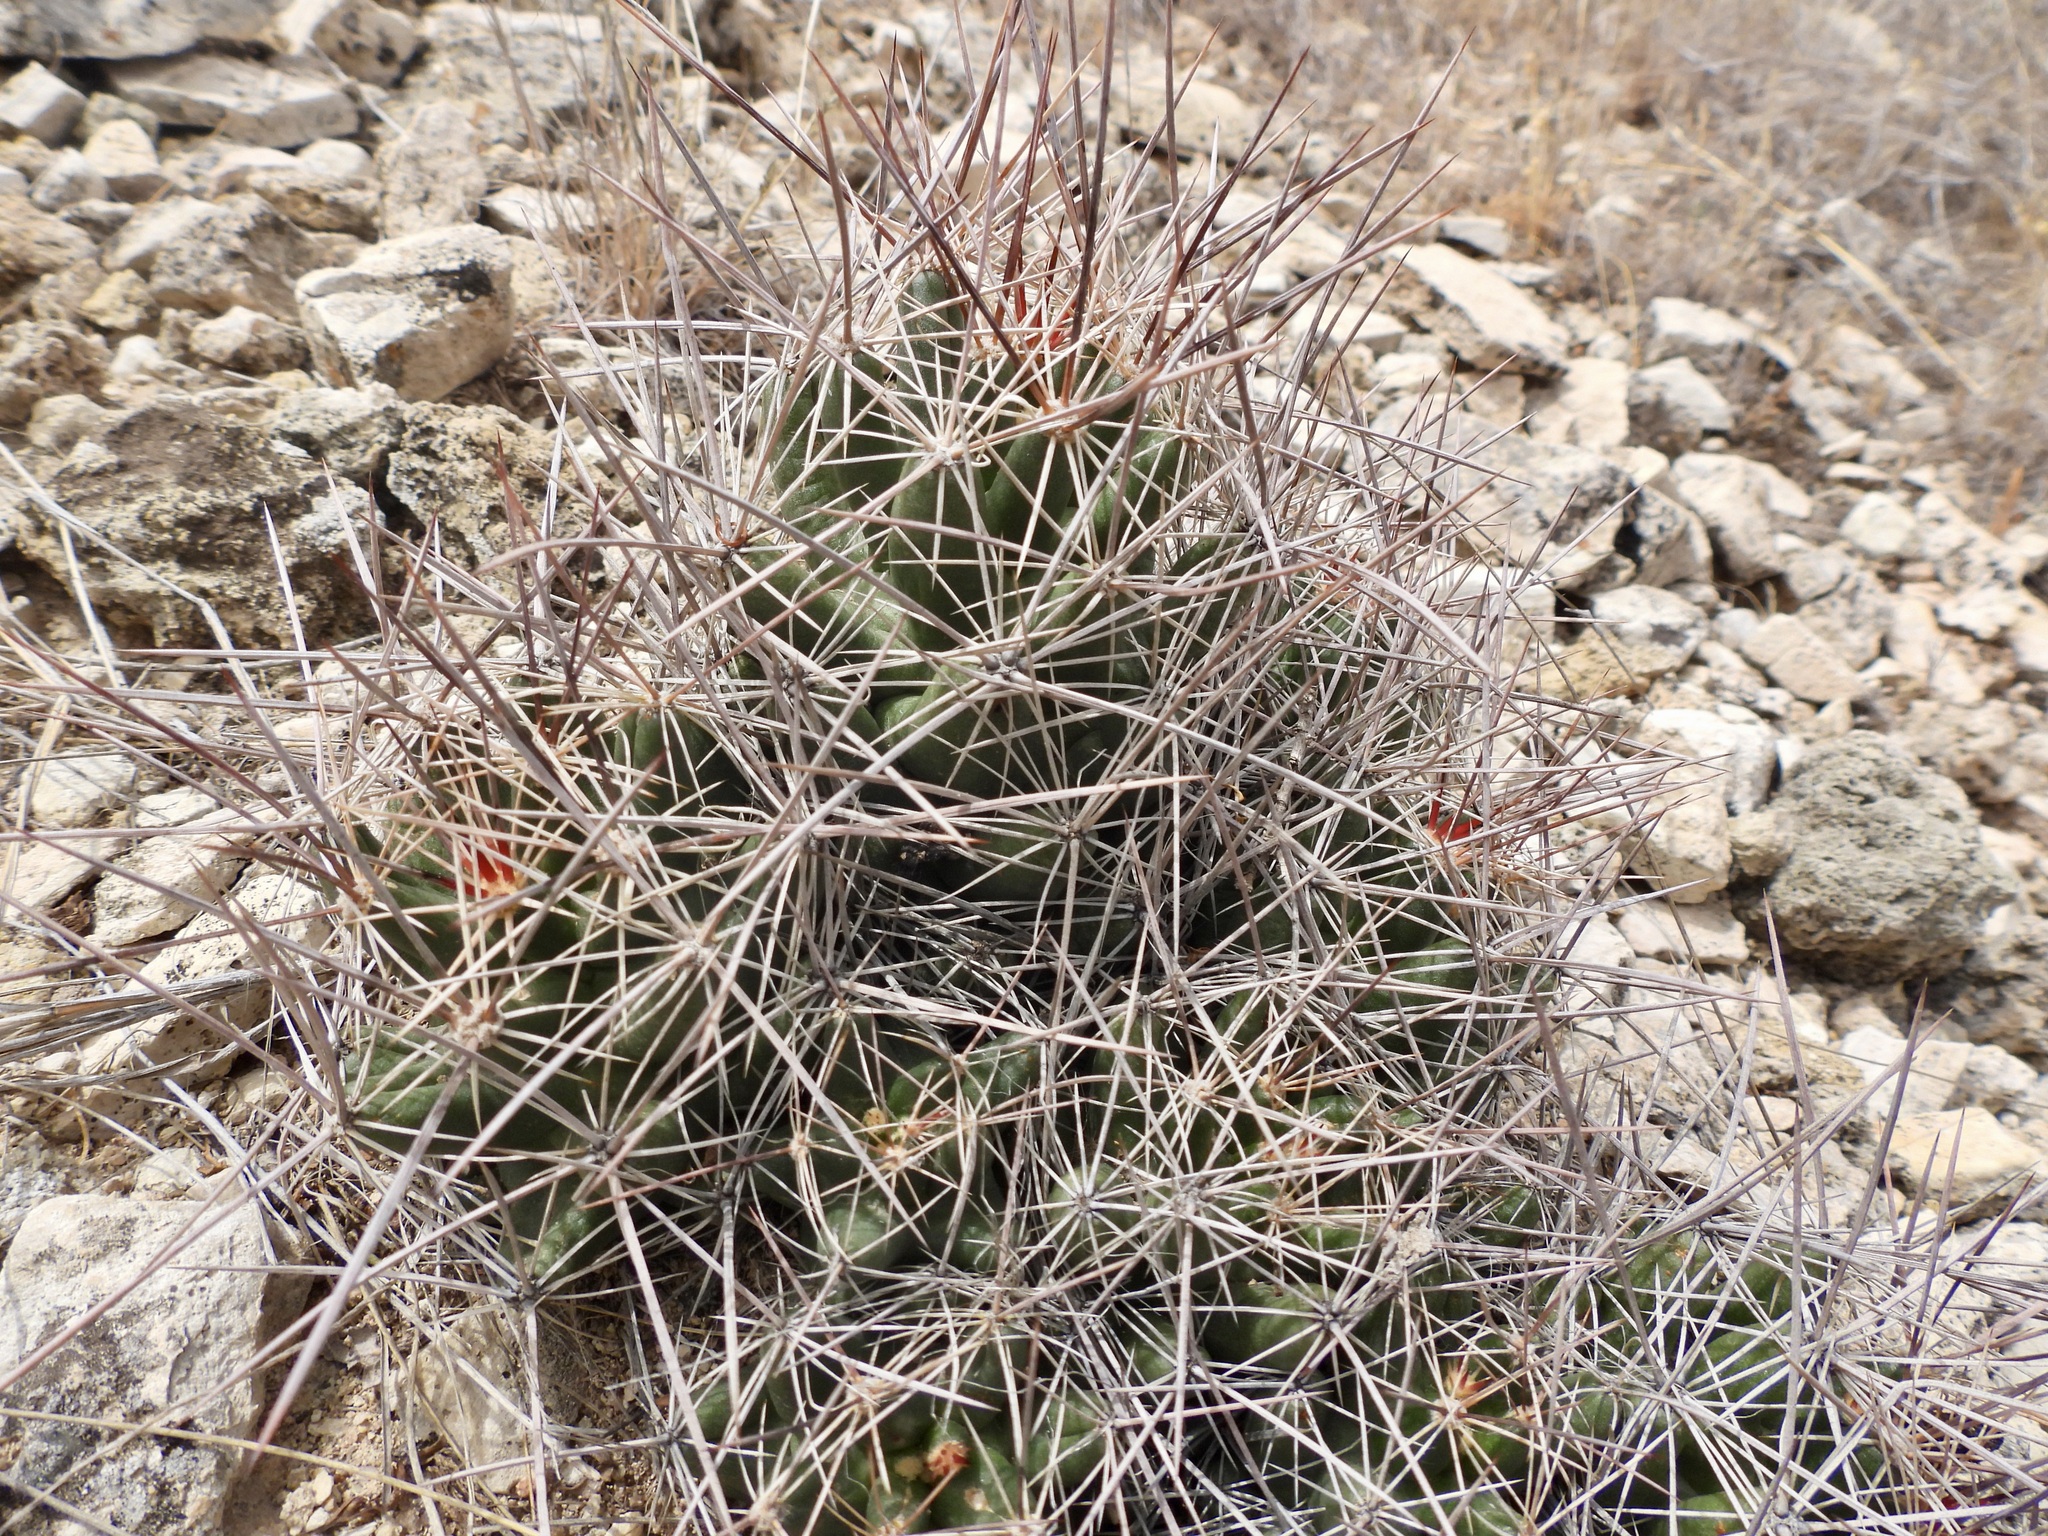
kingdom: Plantae
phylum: Tracheophyta
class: Magnoliopsida
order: Caryophyllales
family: Cactaceae
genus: Coryphantha
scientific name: Coryphantha macromeris
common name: Nipple beehive cactus
